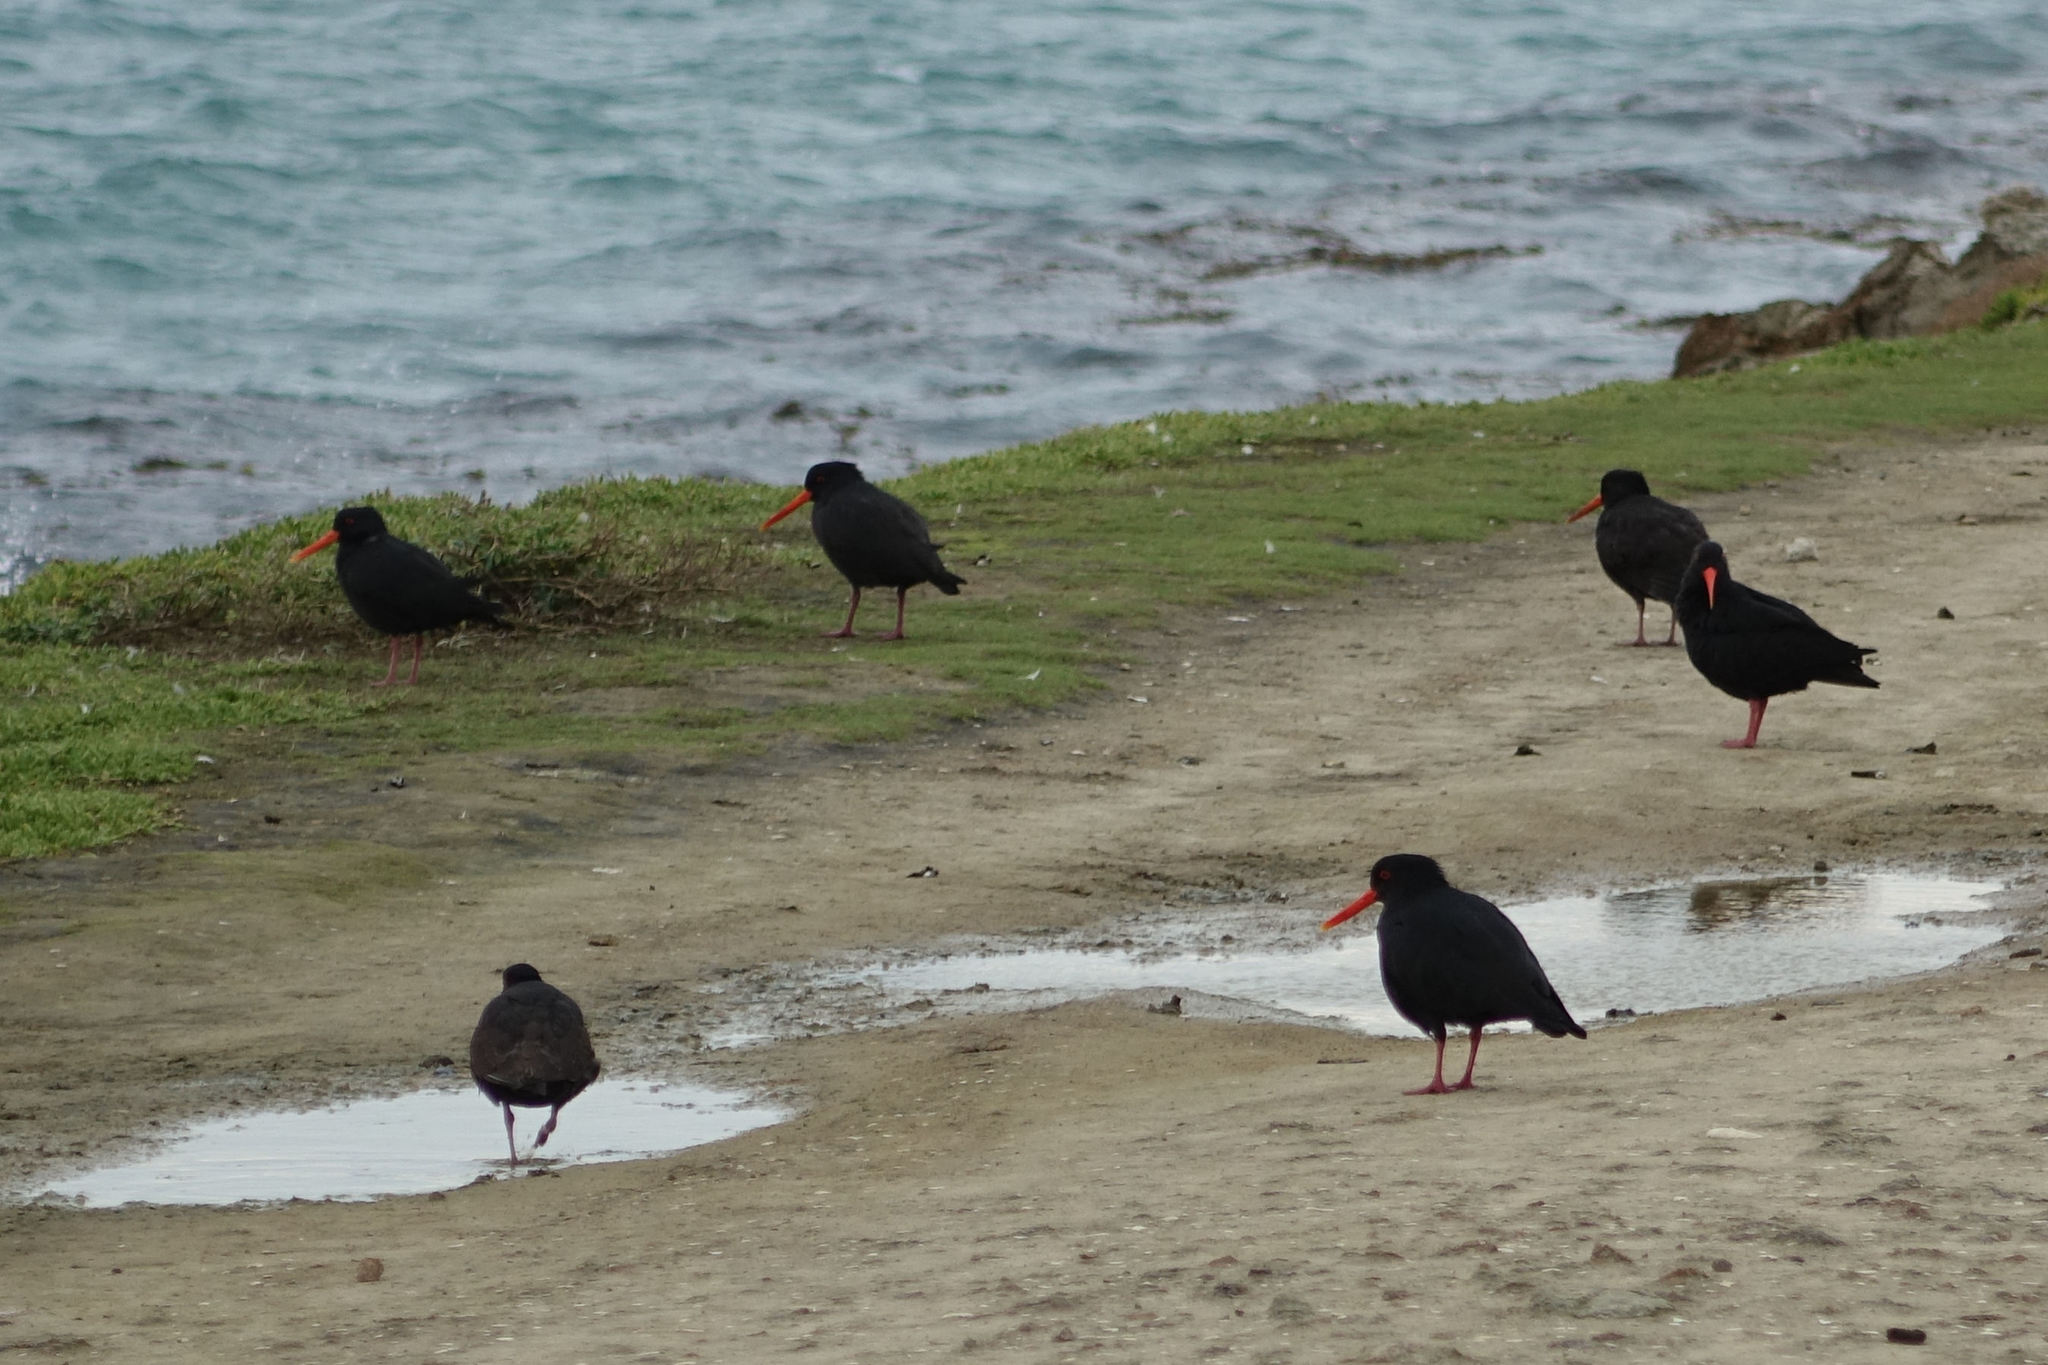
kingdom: Animalia
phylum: Chordata
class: Aves
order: Charadriiformes
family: Haematopodidae
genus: Haematopus
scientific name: Haematopus unicolor
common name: Variable oystercatcher
